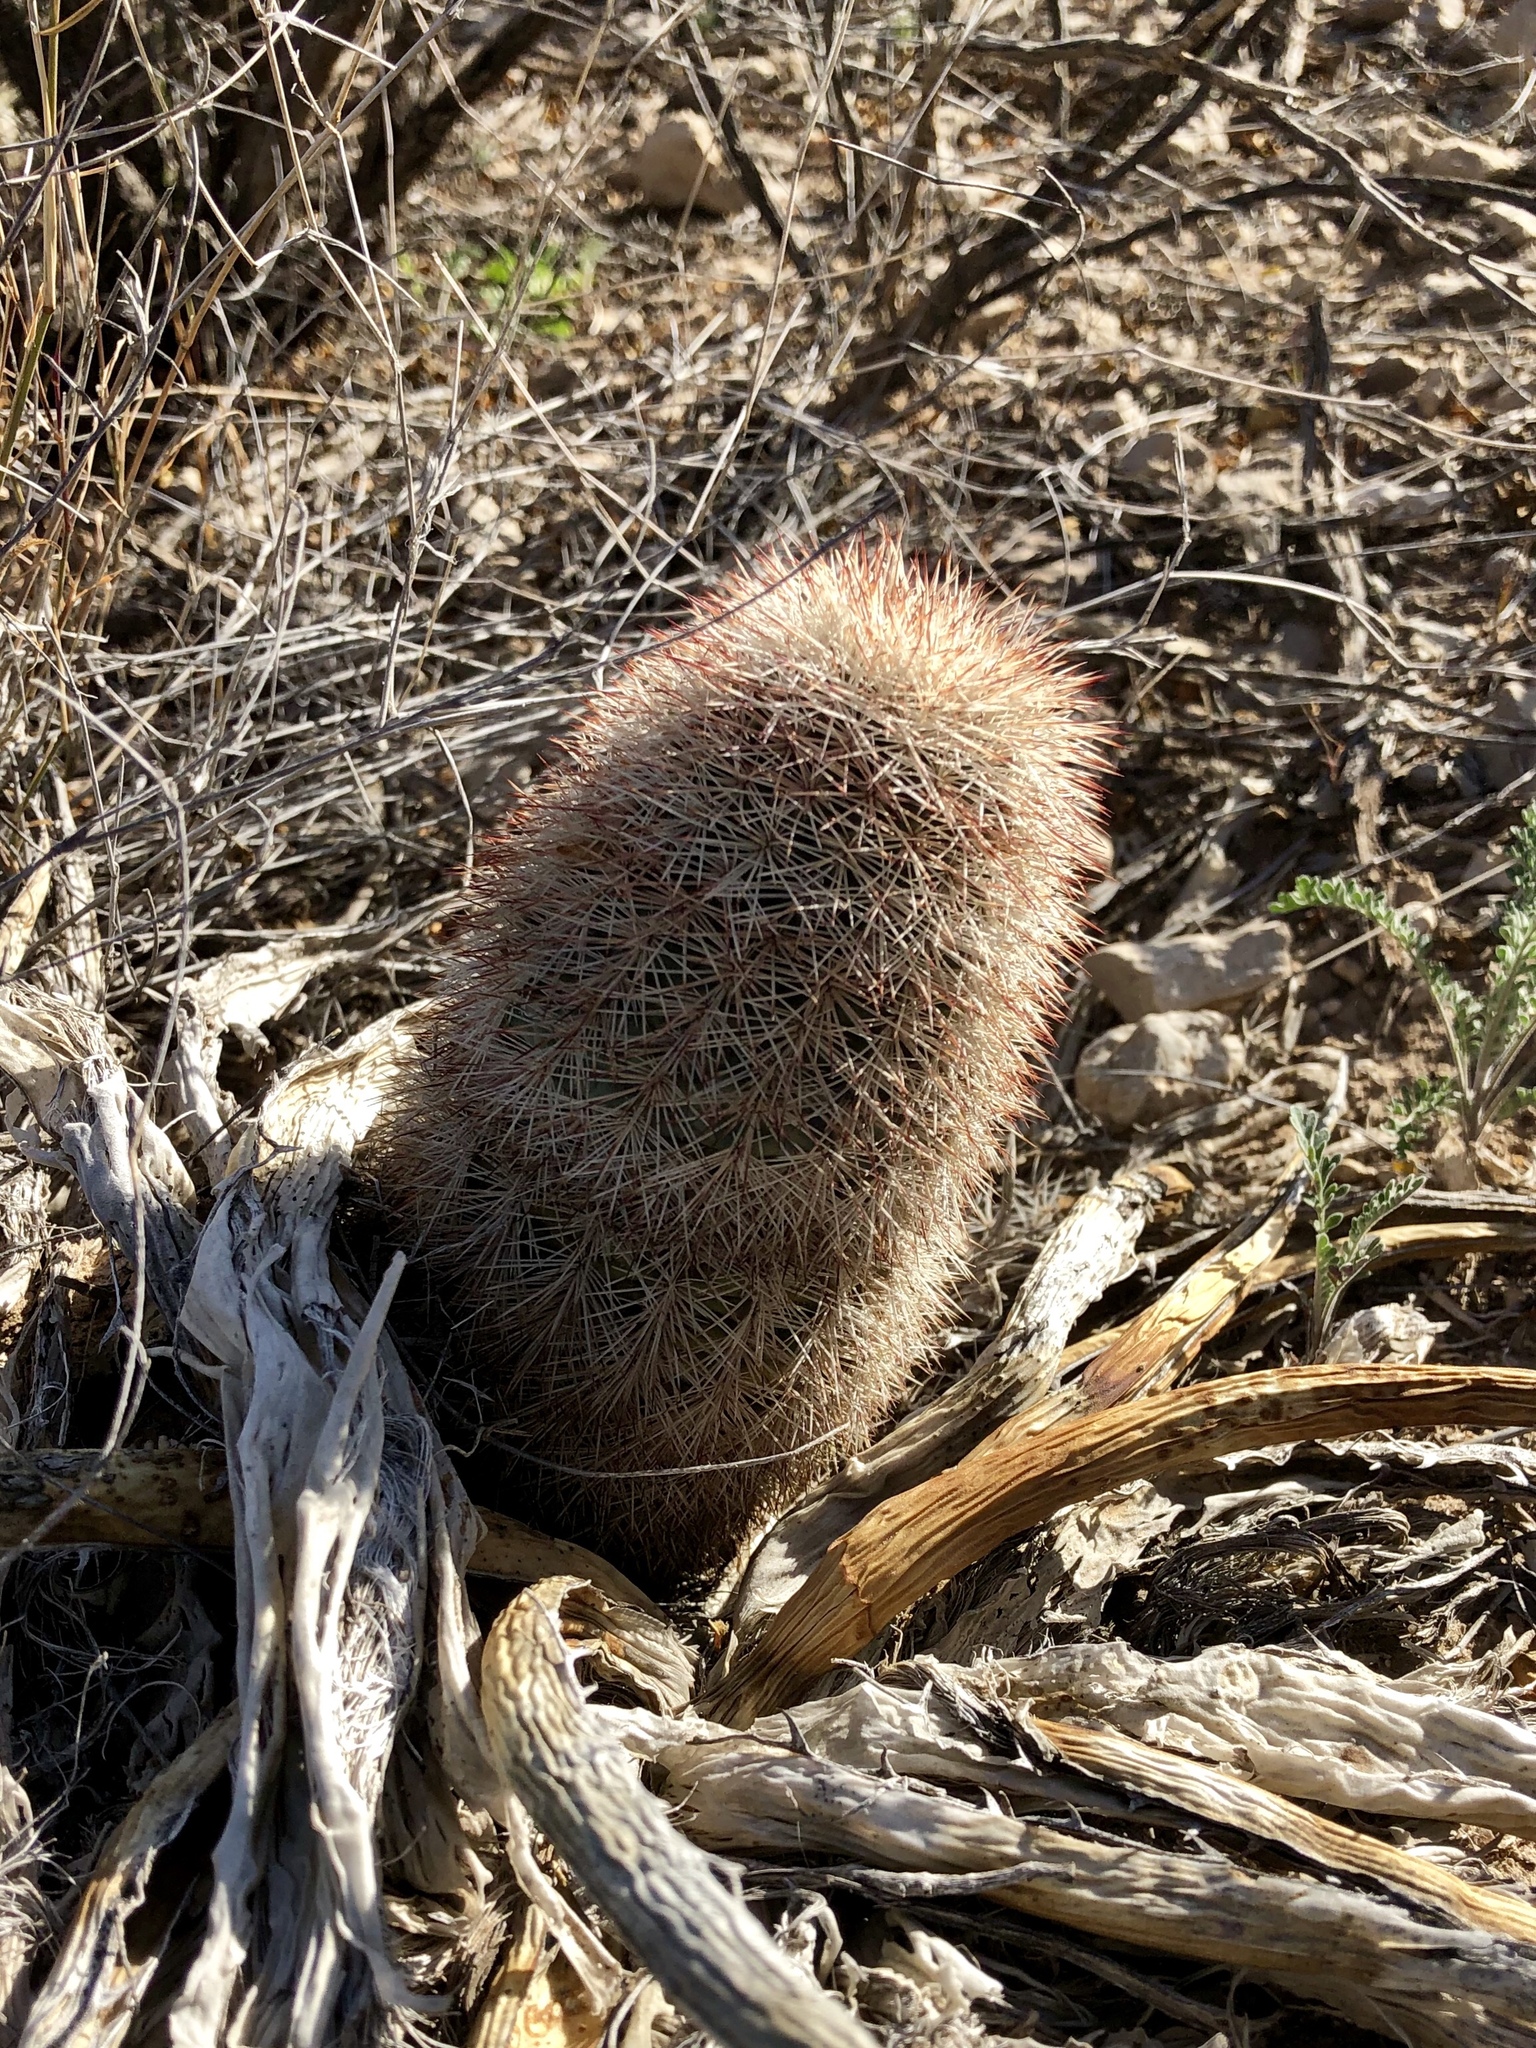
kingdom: Plantae
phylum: Tracheophyta
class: Magnoliopsida
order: Caryophyllales
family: Cactaceae
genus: Echinocereus
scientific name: Echinocereus dasyacanthus
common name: Spiny hedgehog cactus
